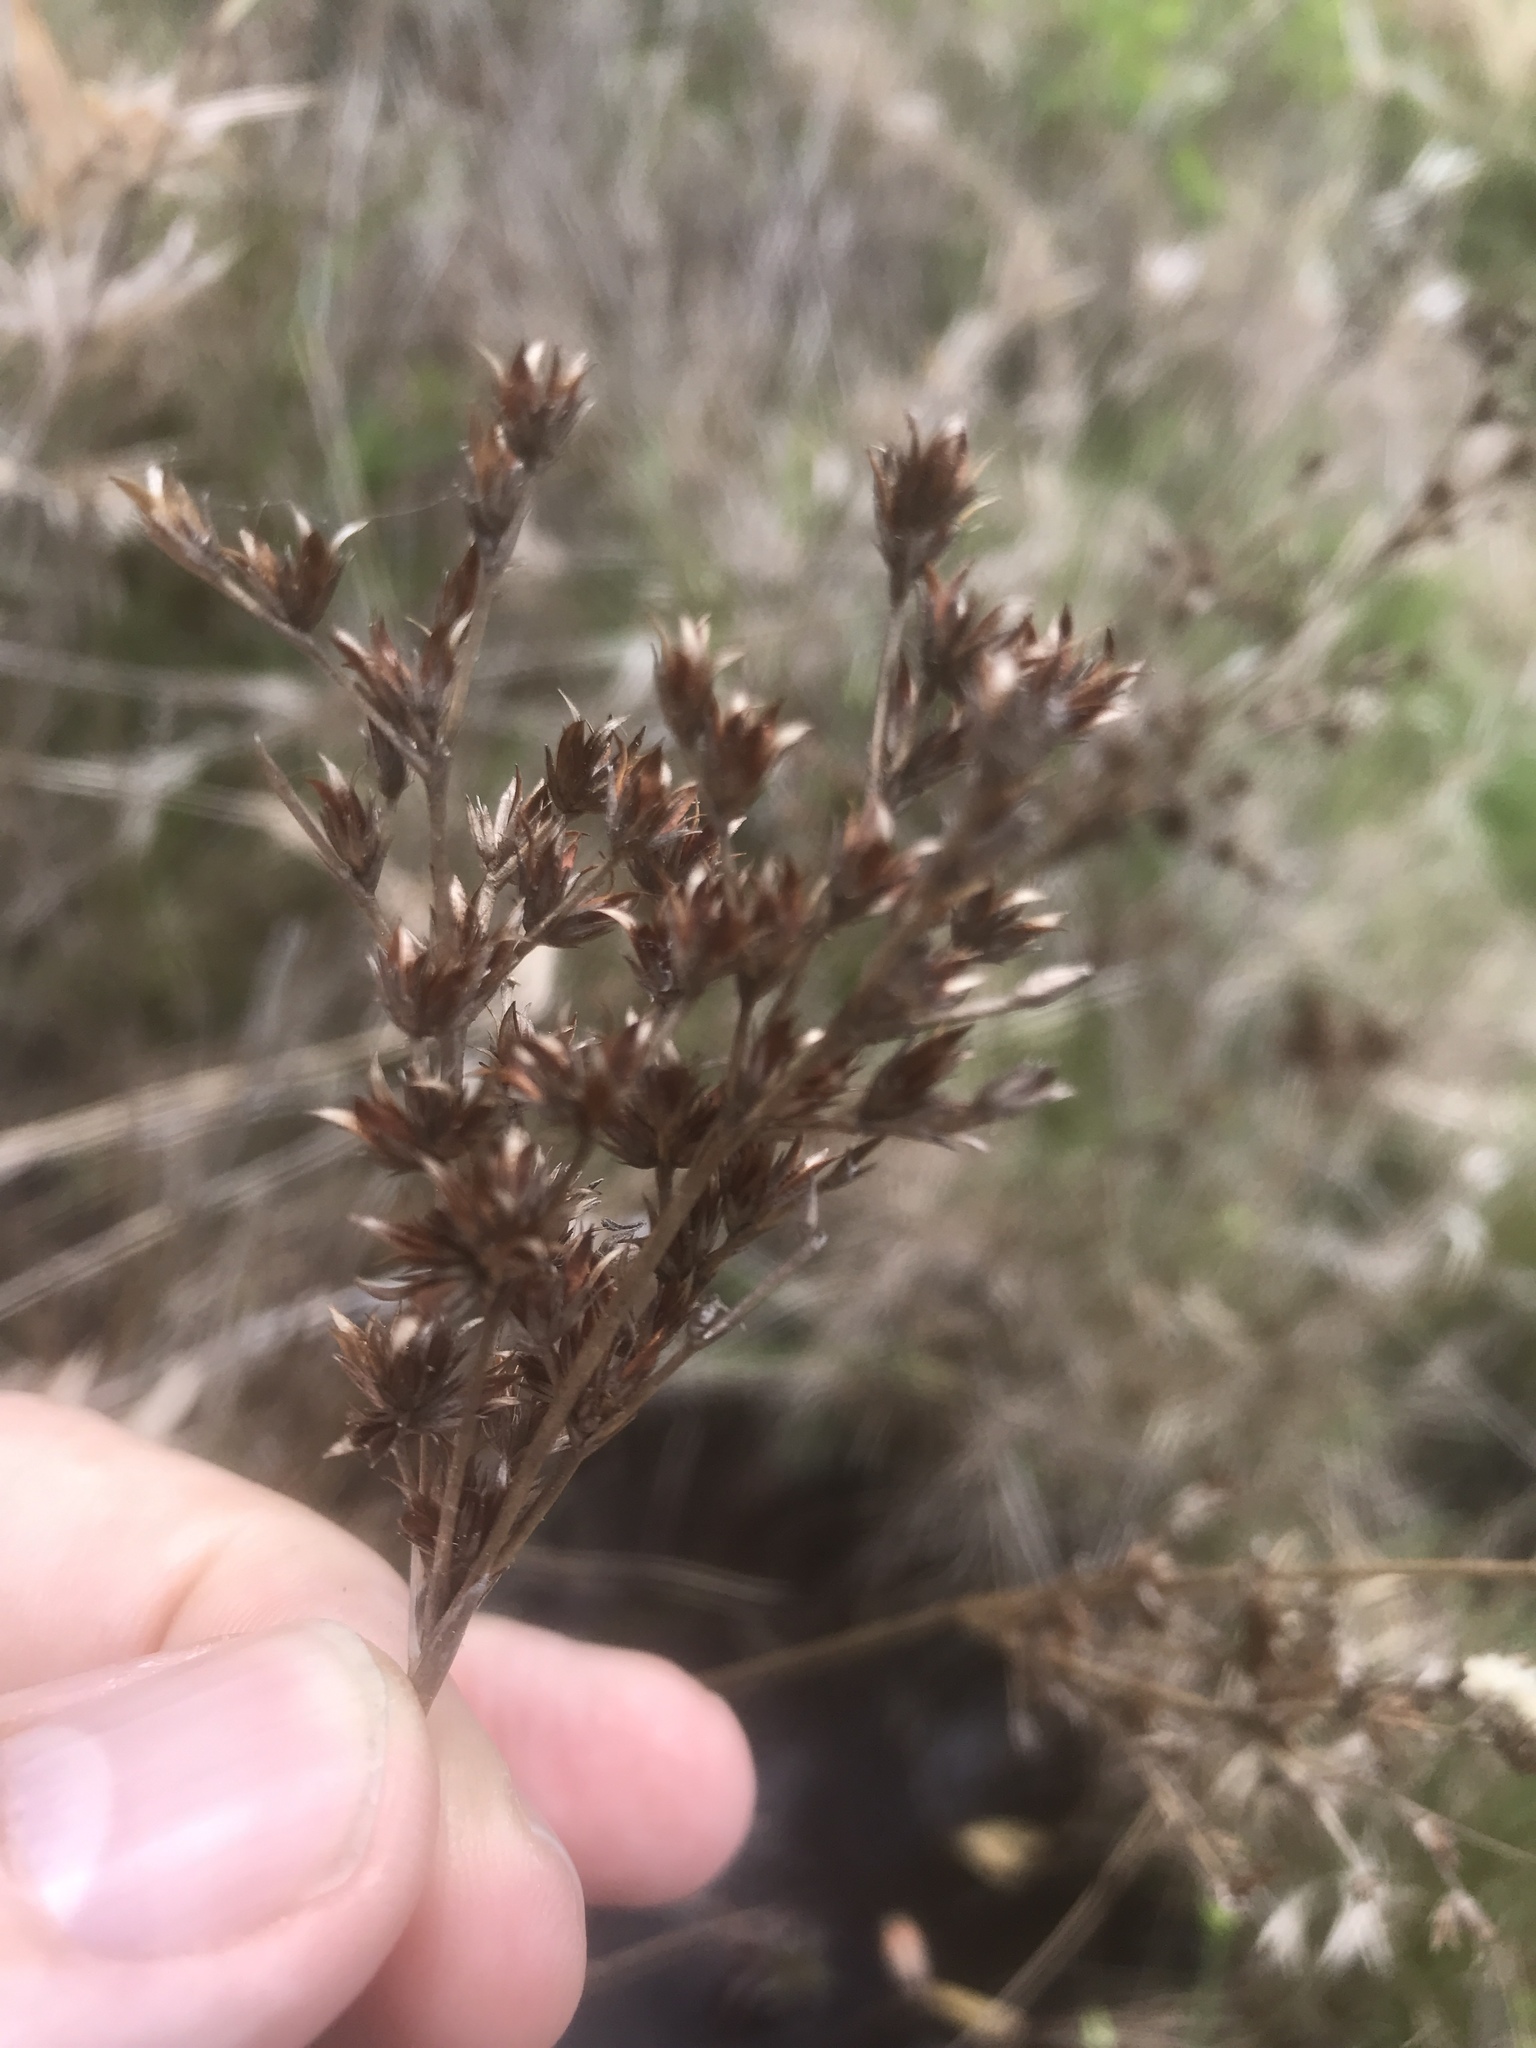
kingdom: Plantae
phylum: Tracheophyta
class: Liliopsida
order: Poales
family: Juncaceae
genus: Juncus
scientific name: Juncus trigonocarpus
